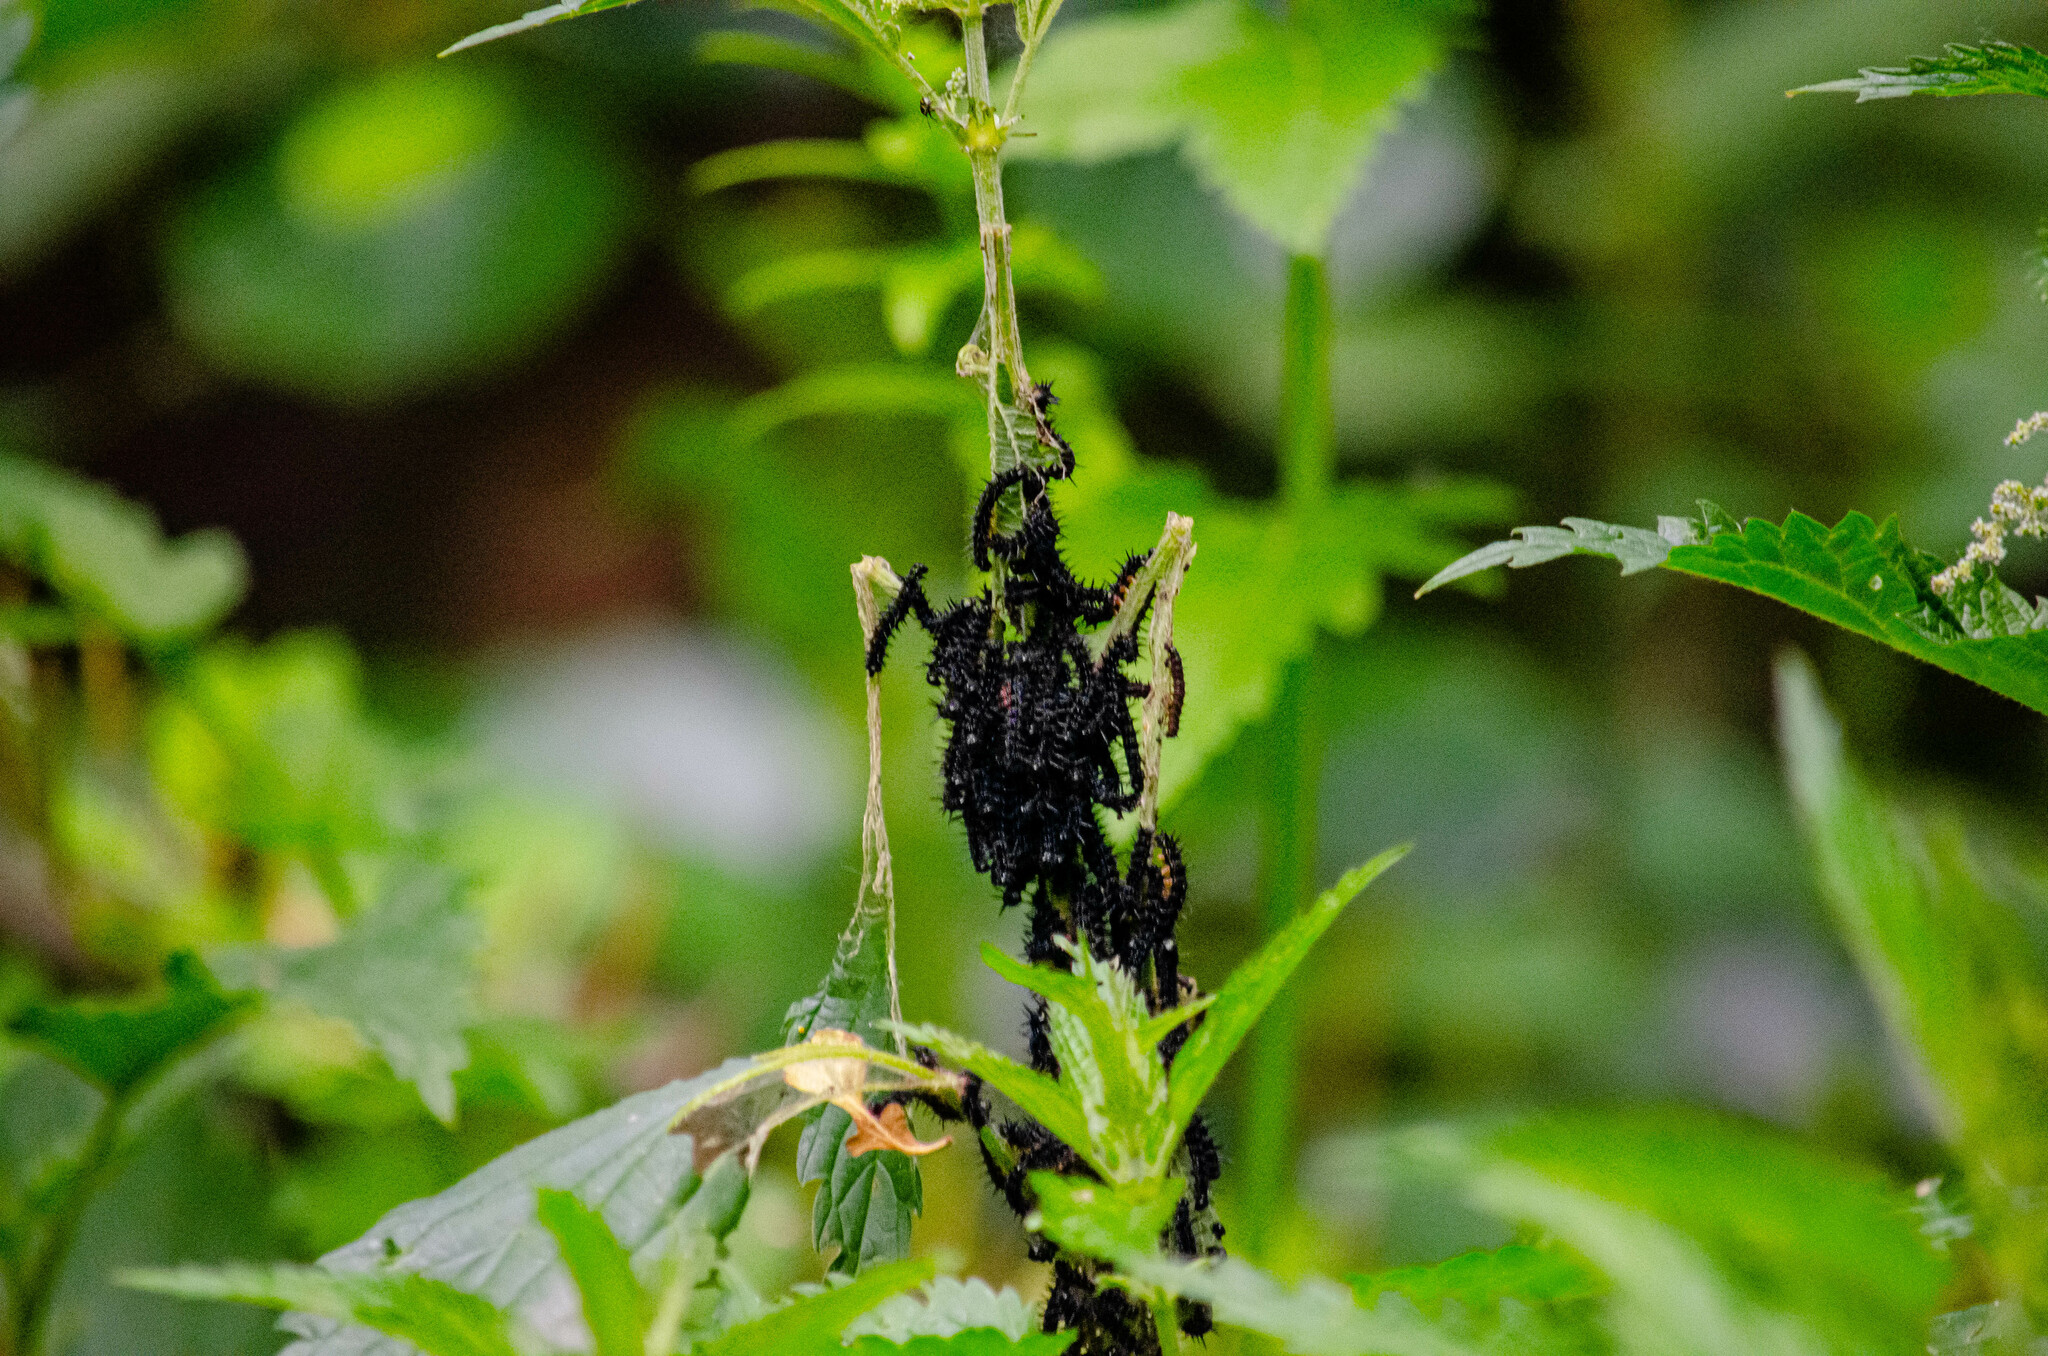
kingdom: Animalia
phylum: Arthropoda
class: Insecta
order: Lepidoptera
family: Nymphalidae
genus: Aglais
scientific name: Aglais io
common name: Peacock
